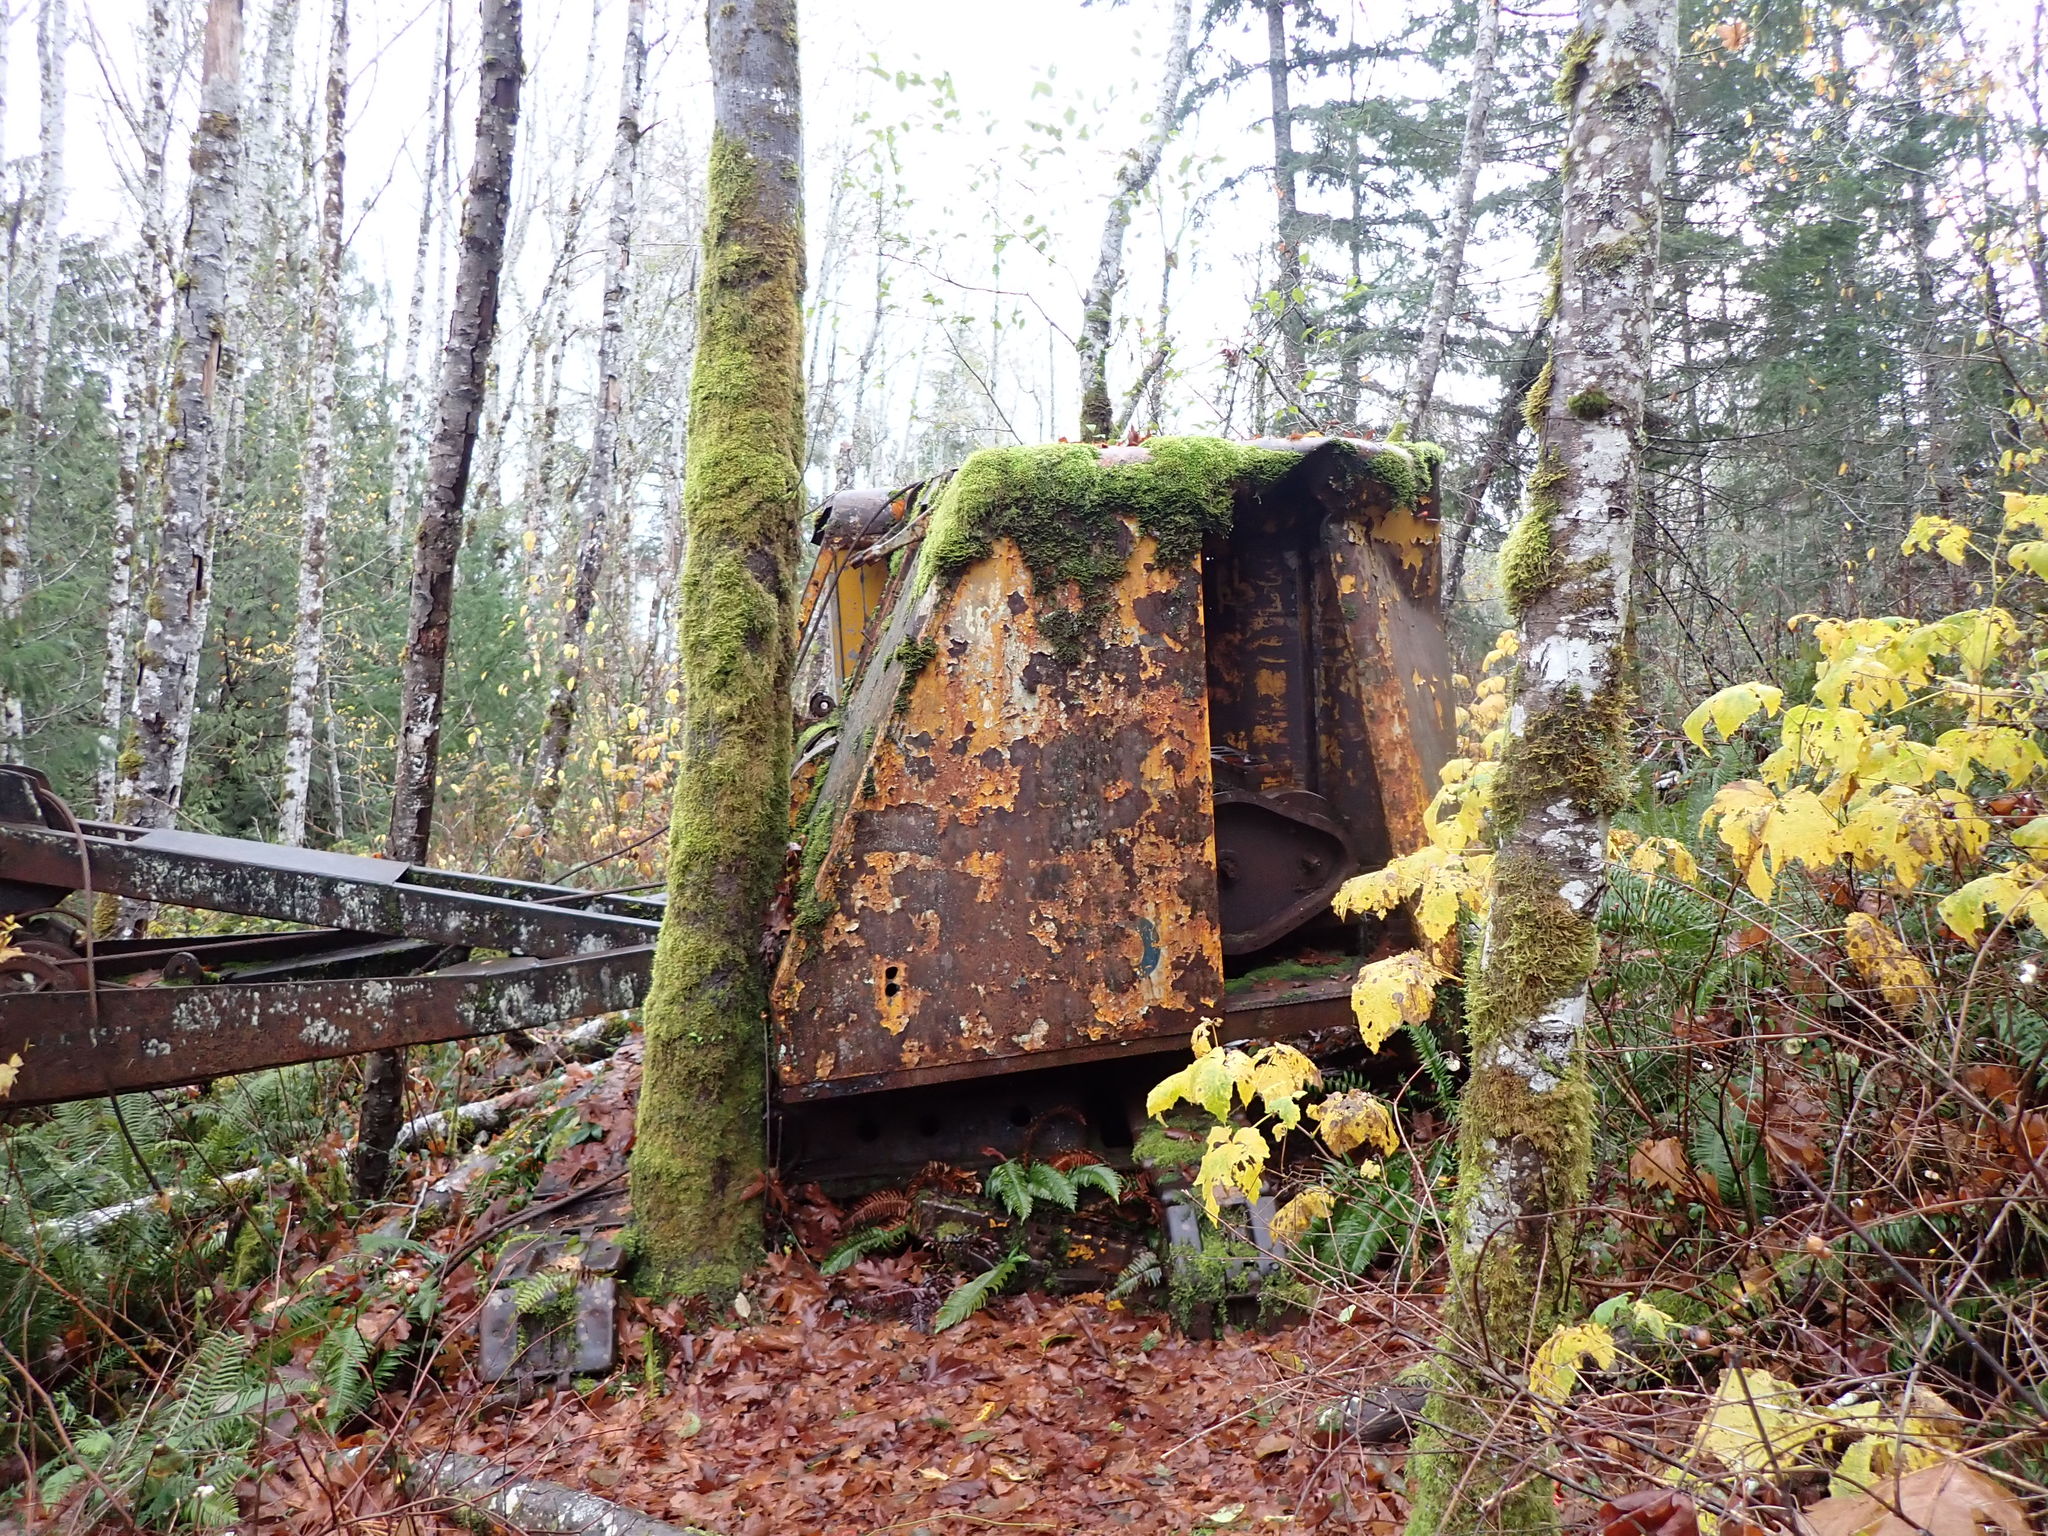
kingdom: Plantae
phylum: Marchantiophyta
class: Jungermanniopsida
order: Porellales
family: Porellaceae
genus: Porella
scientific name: Porella navicularis
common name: Tree ruffle liverwort
